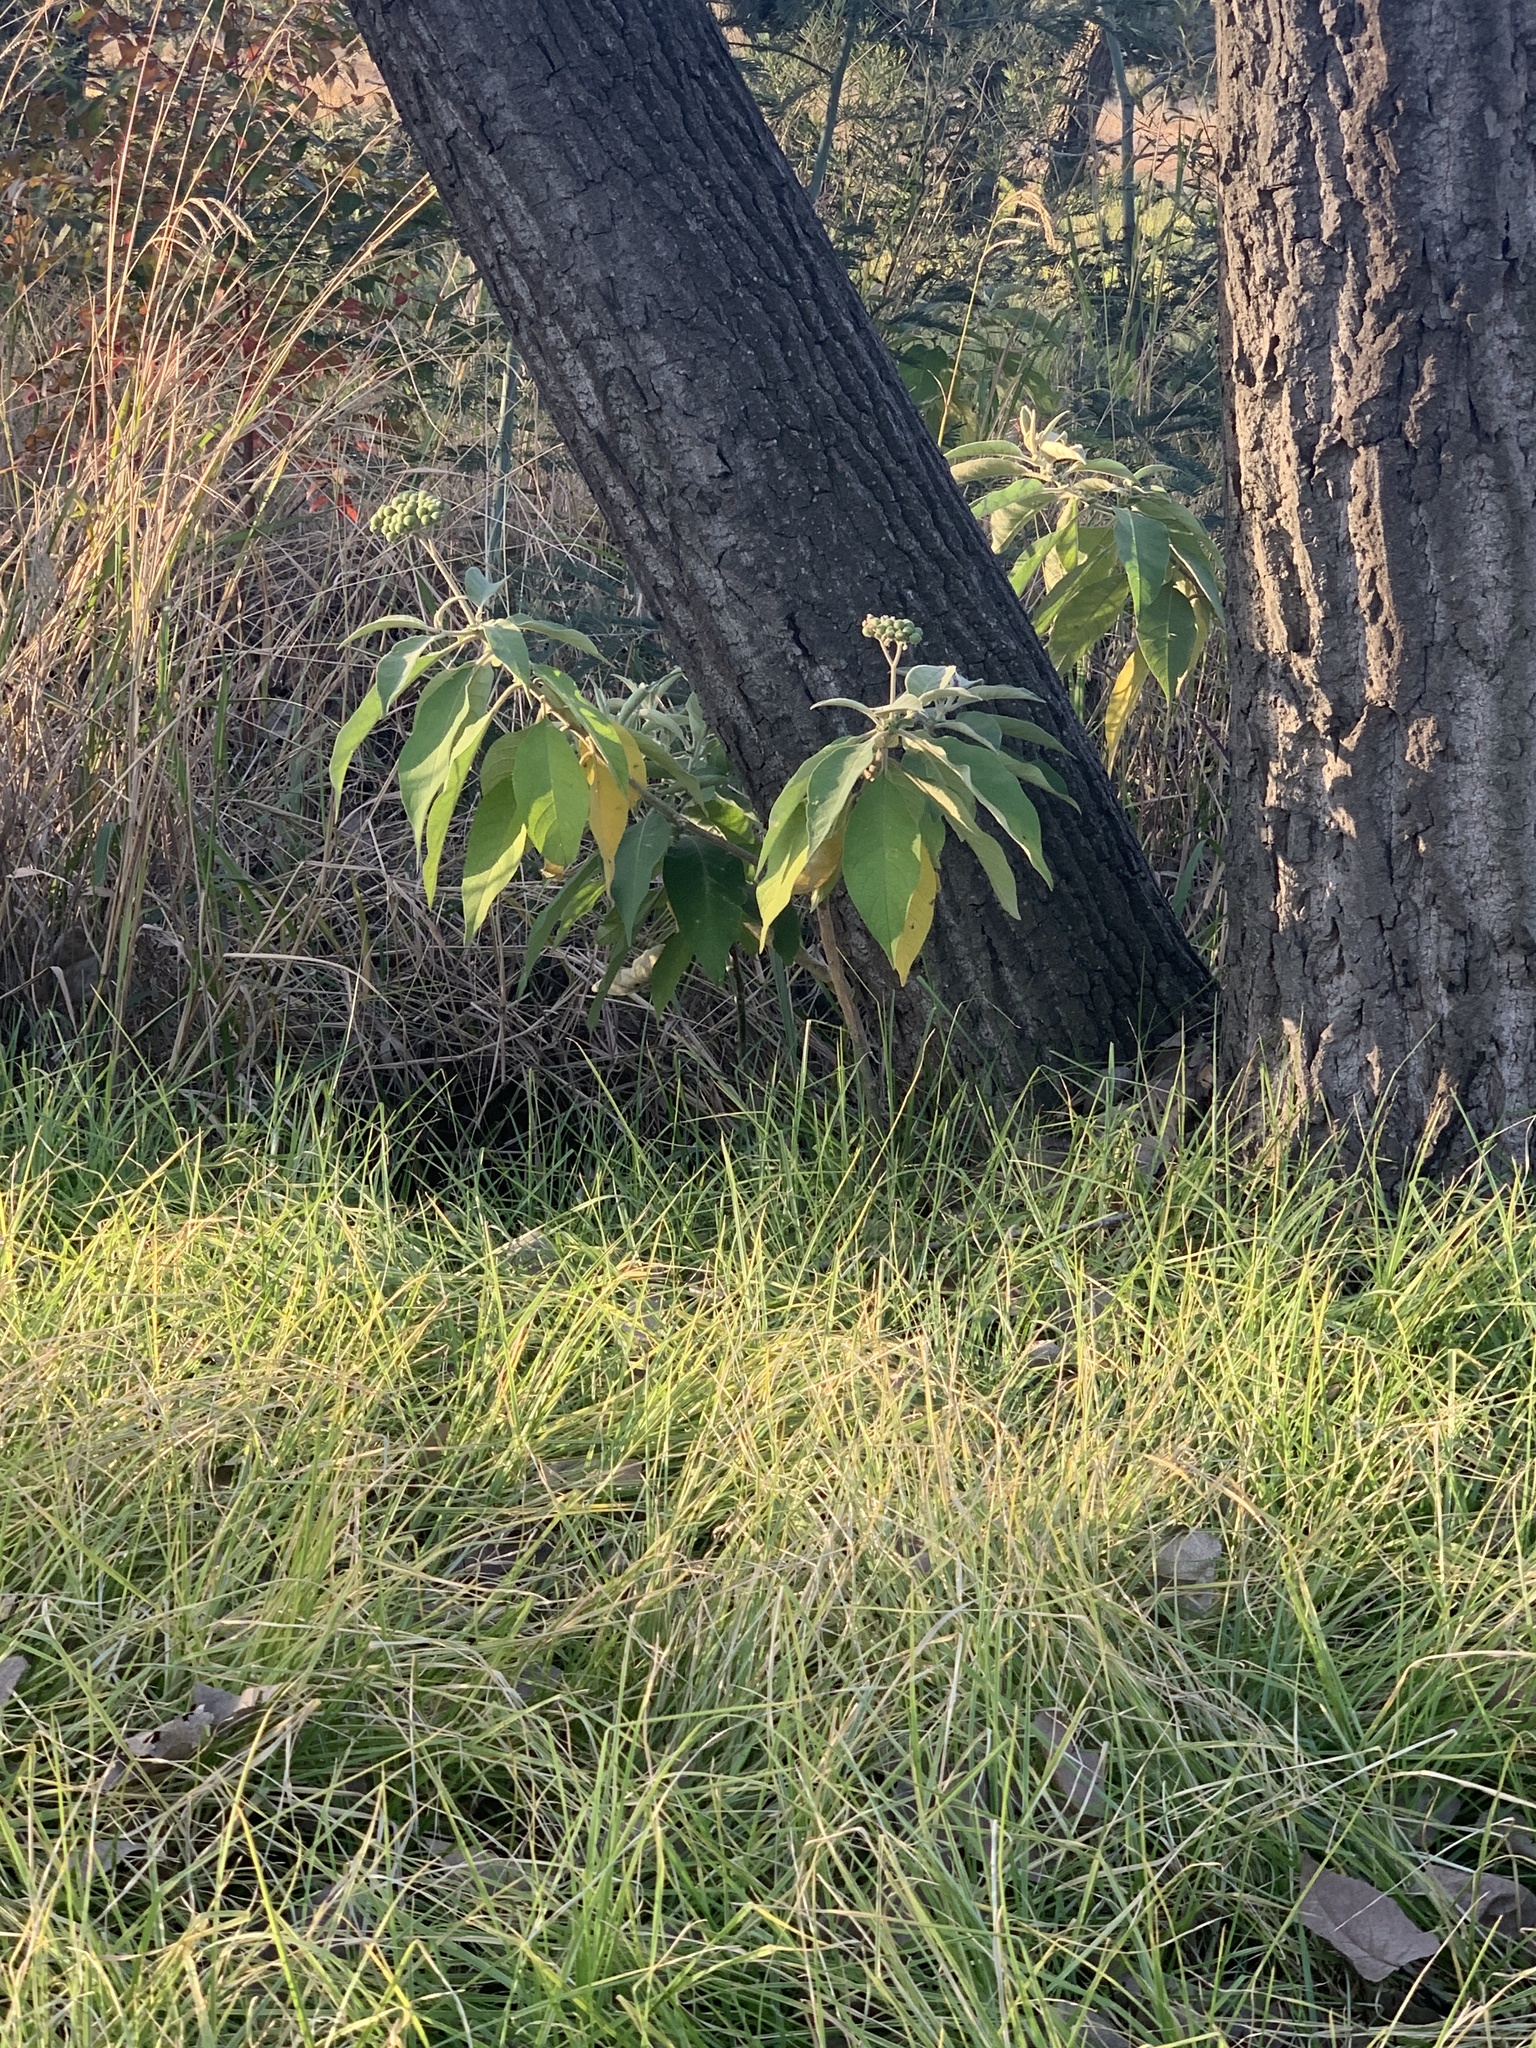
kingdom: Plantae
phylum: Tracheophyta
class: Magnoliopsida
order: Solanales
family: Solanaceae
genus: Solanum
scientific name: Solanum mauritianum
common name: Earleaf nightshade
